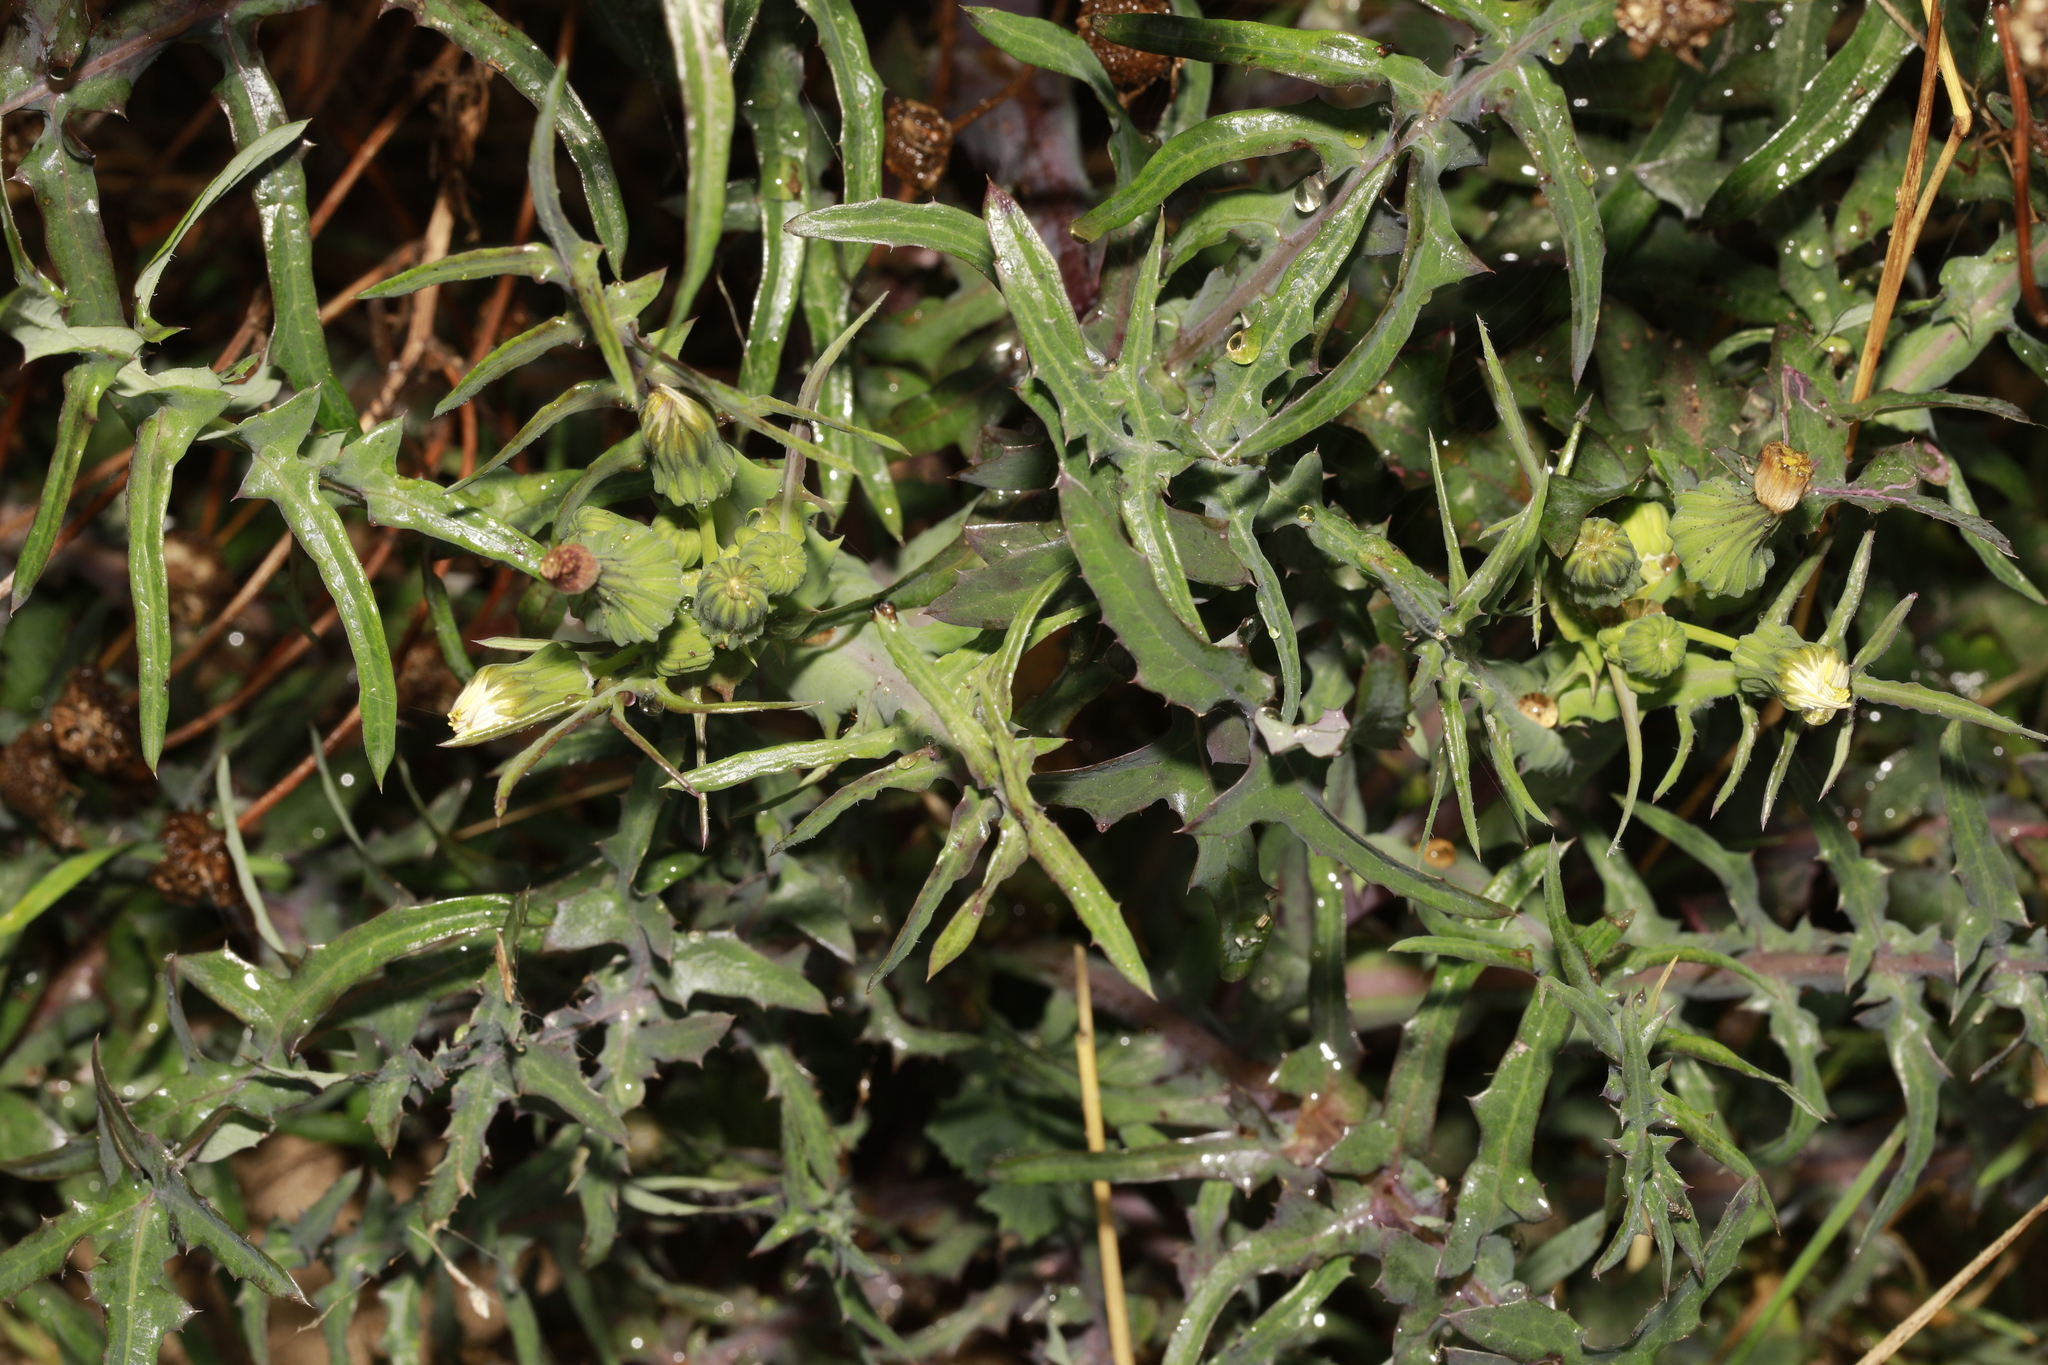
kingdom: Plantae
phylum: Tracheophyta
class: Magnoliopsida
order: Asterales
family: Asteraceae
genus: Sonchus
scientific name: Sonchus oleraceus
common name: Common sowthistle
